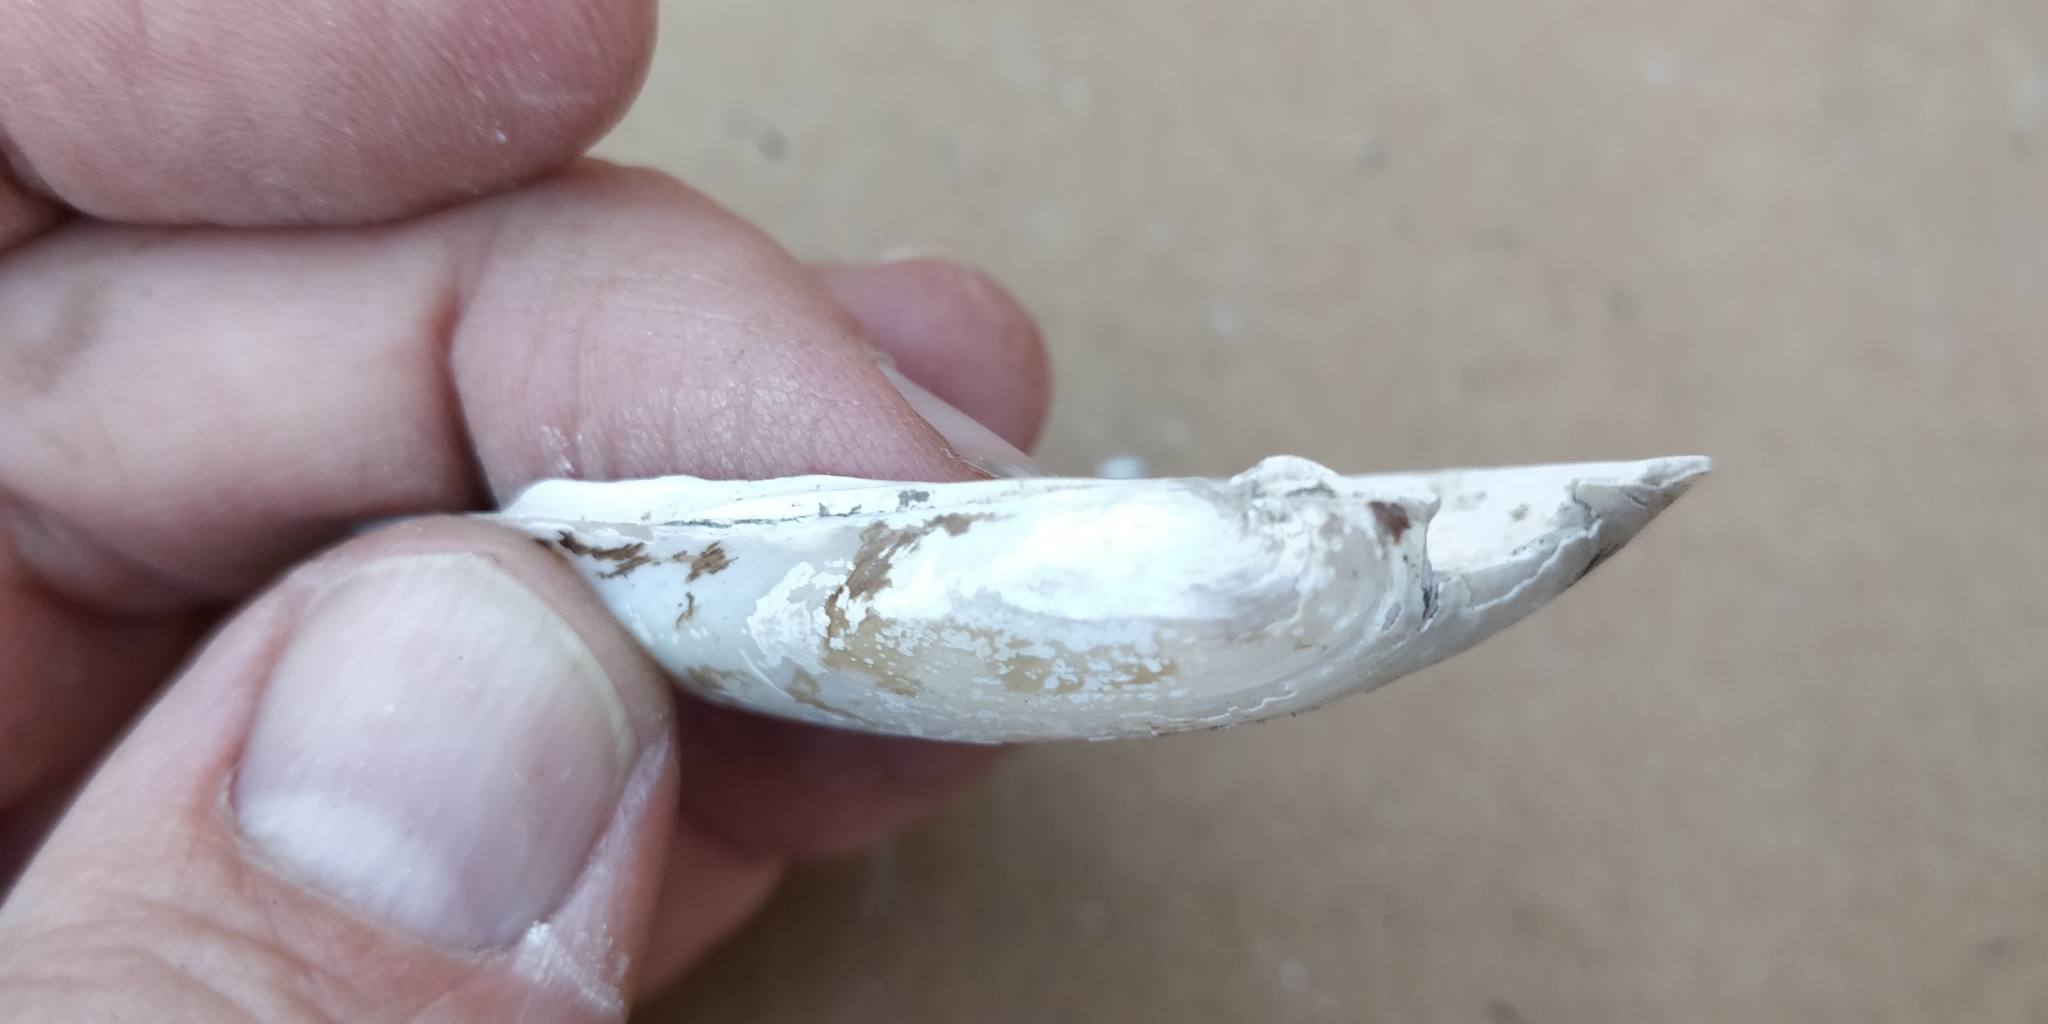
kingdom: Animalia
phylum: Mollusca
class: Bivalvia
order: Unionida
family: Unionidae
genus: Lampsilis
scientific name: Lampsilis teres
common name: Yellow sandshell
